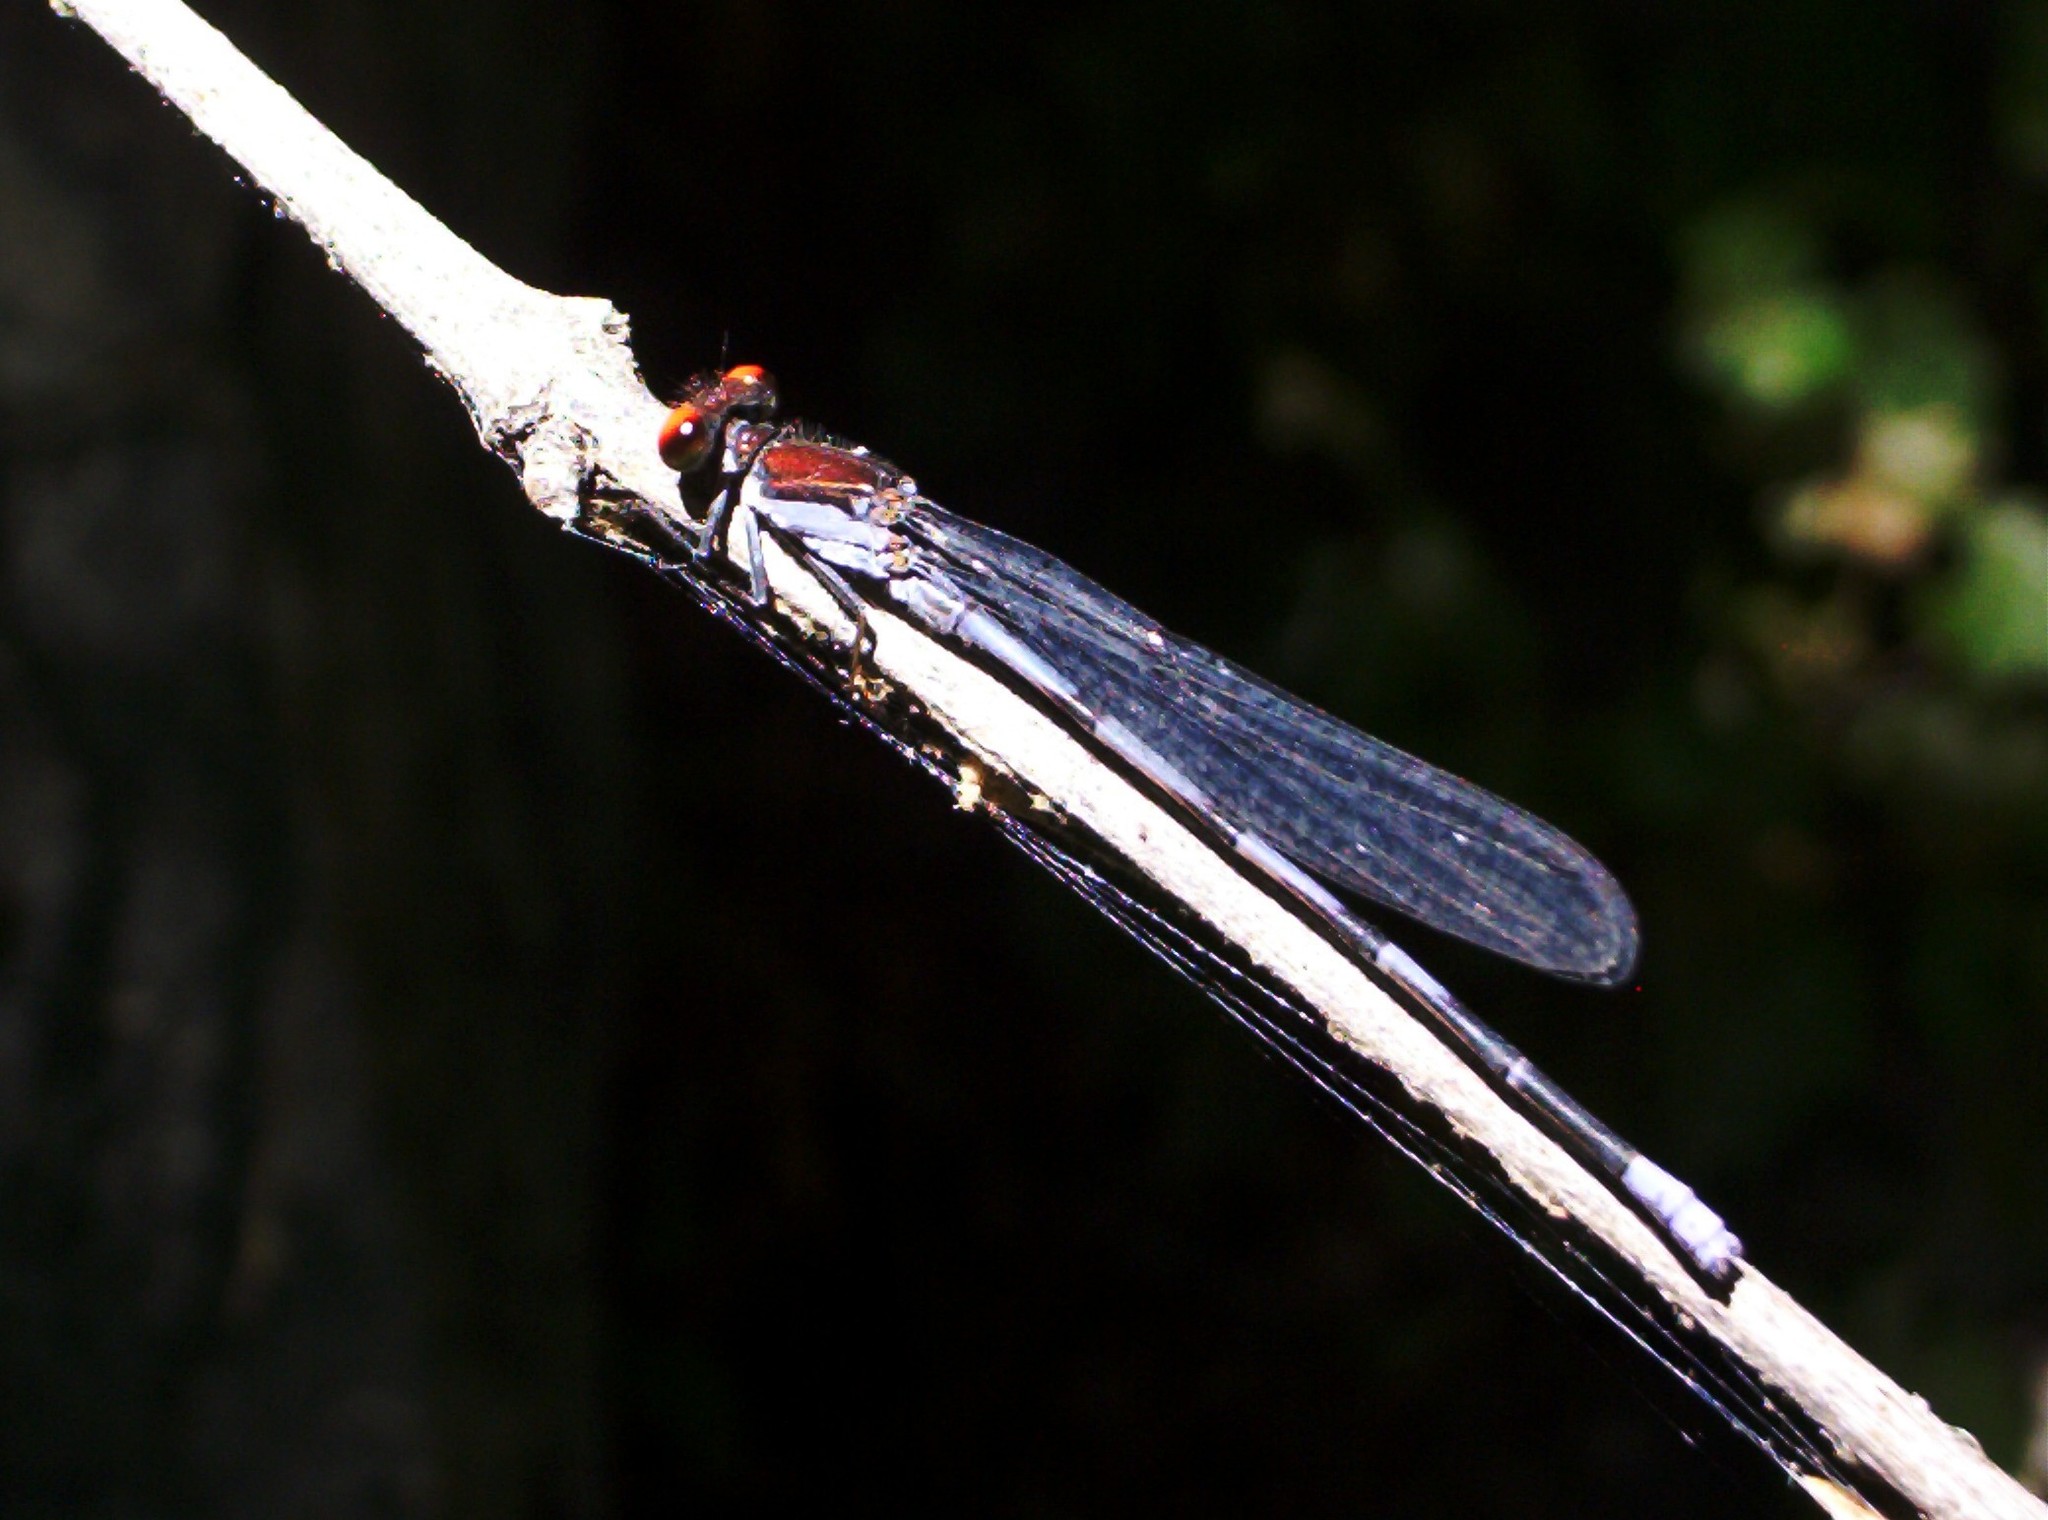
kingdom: Animalia
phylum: Arthropoda
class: Insecta
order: Odonata
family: Coenagrionidae
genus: Argia
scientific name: Argia oenea
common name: Fiery-eyed dancer
